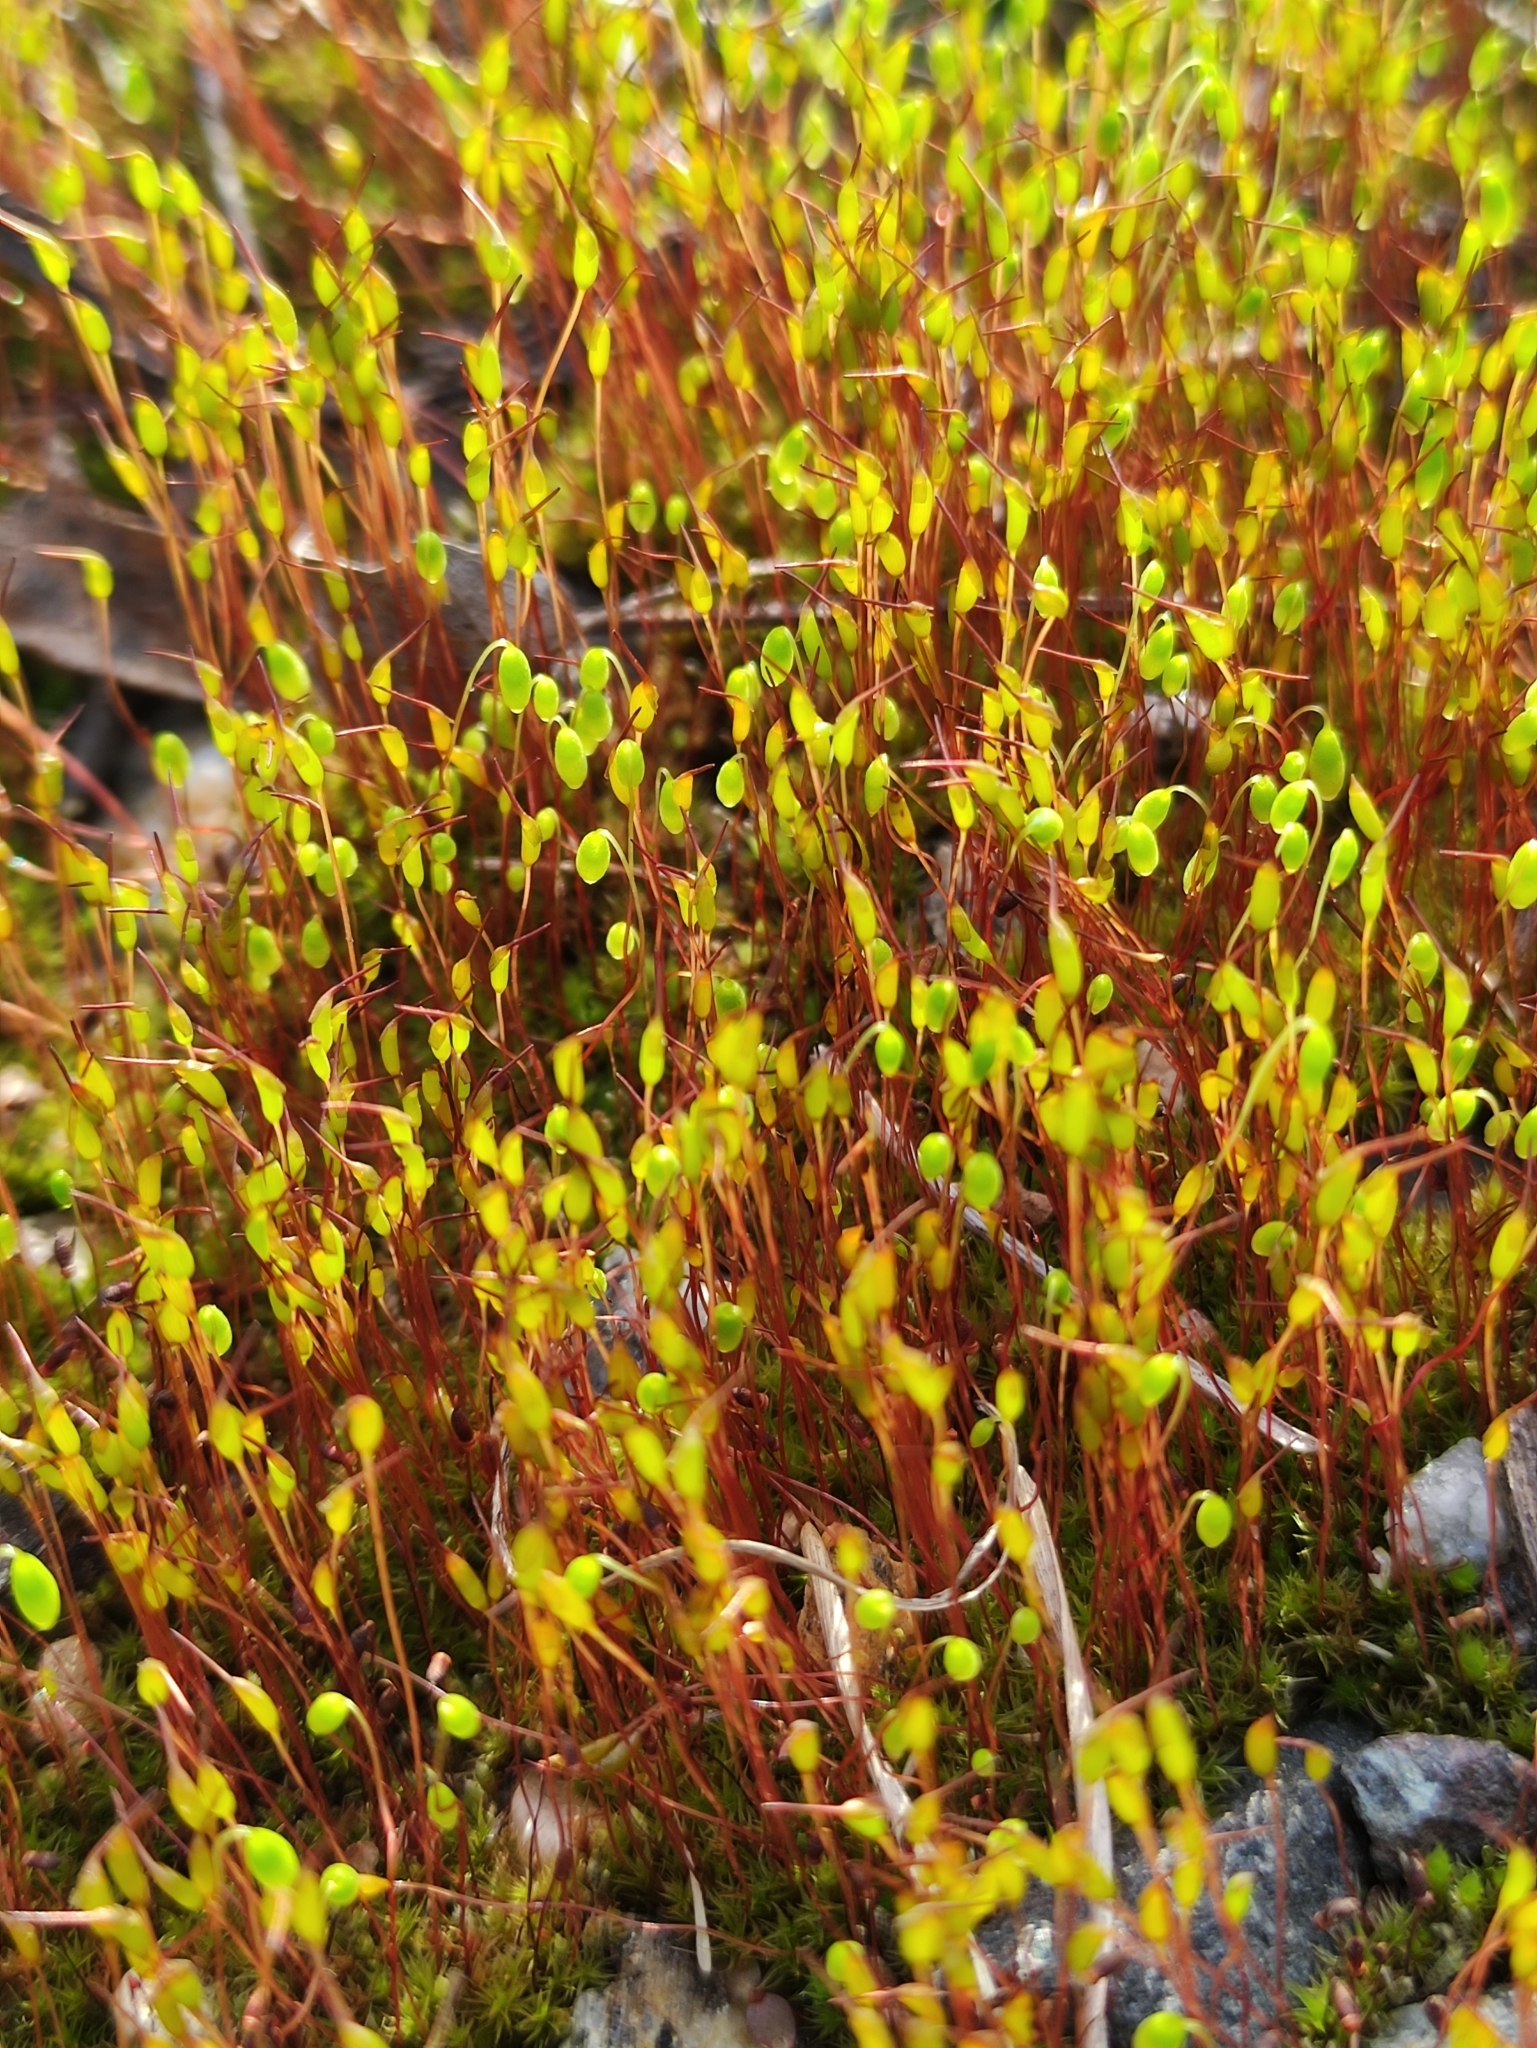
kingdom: Plantae
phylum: Bryophyta
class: Bryopsida
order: Bryales
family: Mniaceae
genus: Pohlia
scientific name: Pohlia nutans
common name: Nodding thread-moss
